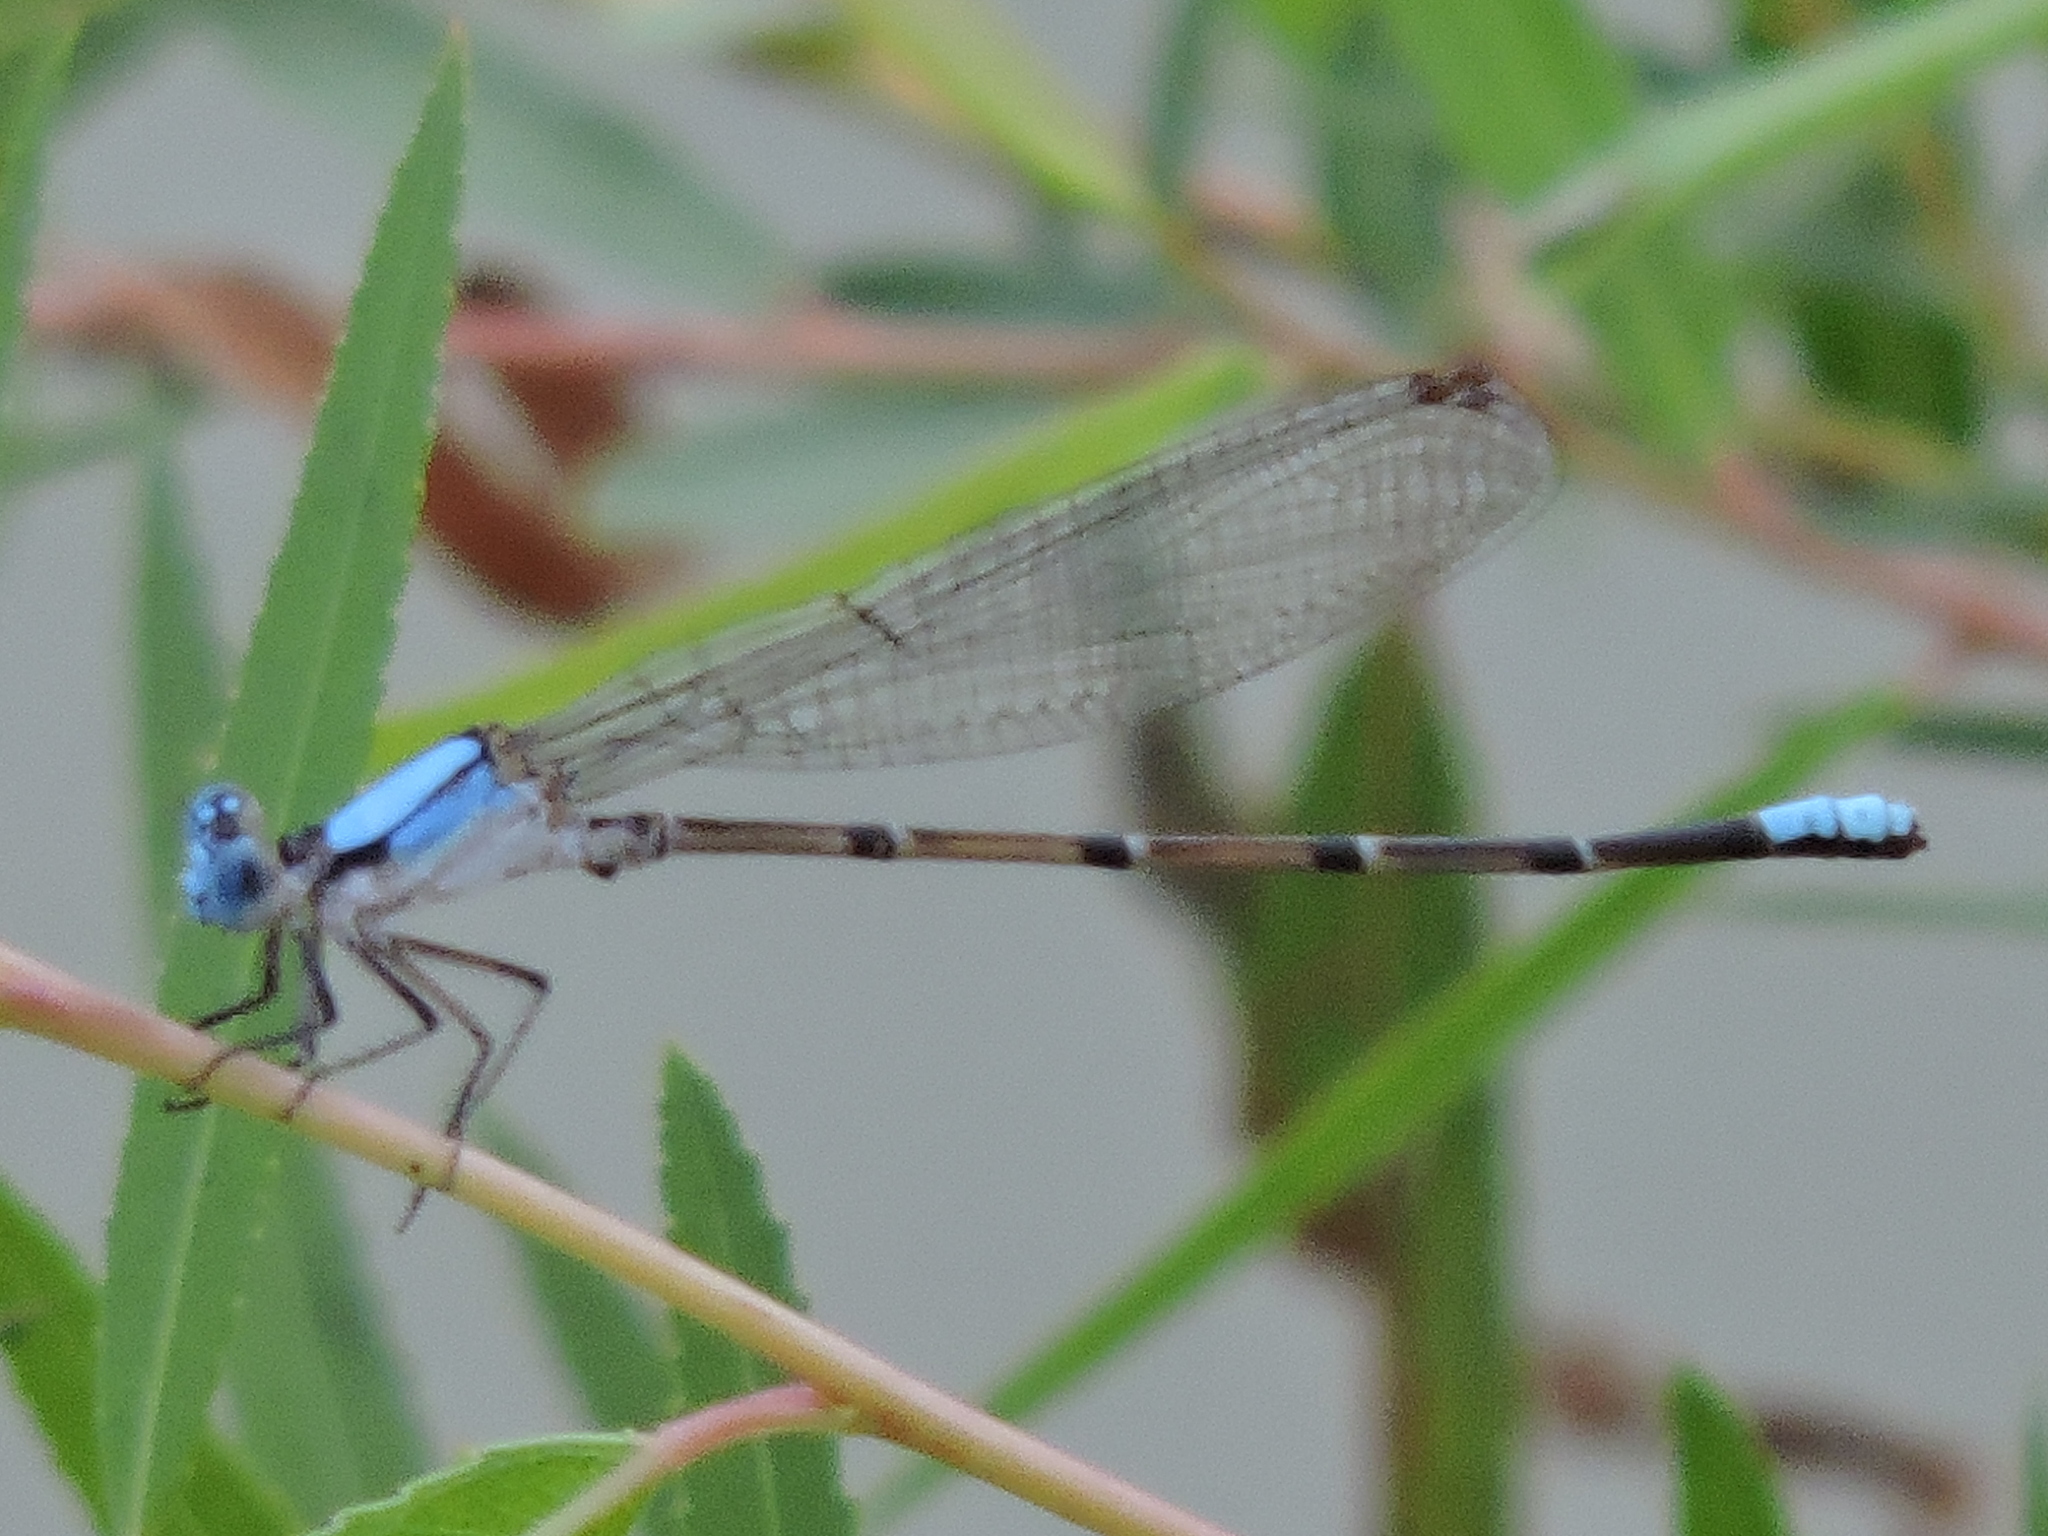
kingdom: Animalia
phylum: Arthropoda
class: Insecta
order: Odonata
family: Coenagrionidae
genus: Argia
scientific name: Argia apicalis
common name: Blue-fronted dancer
